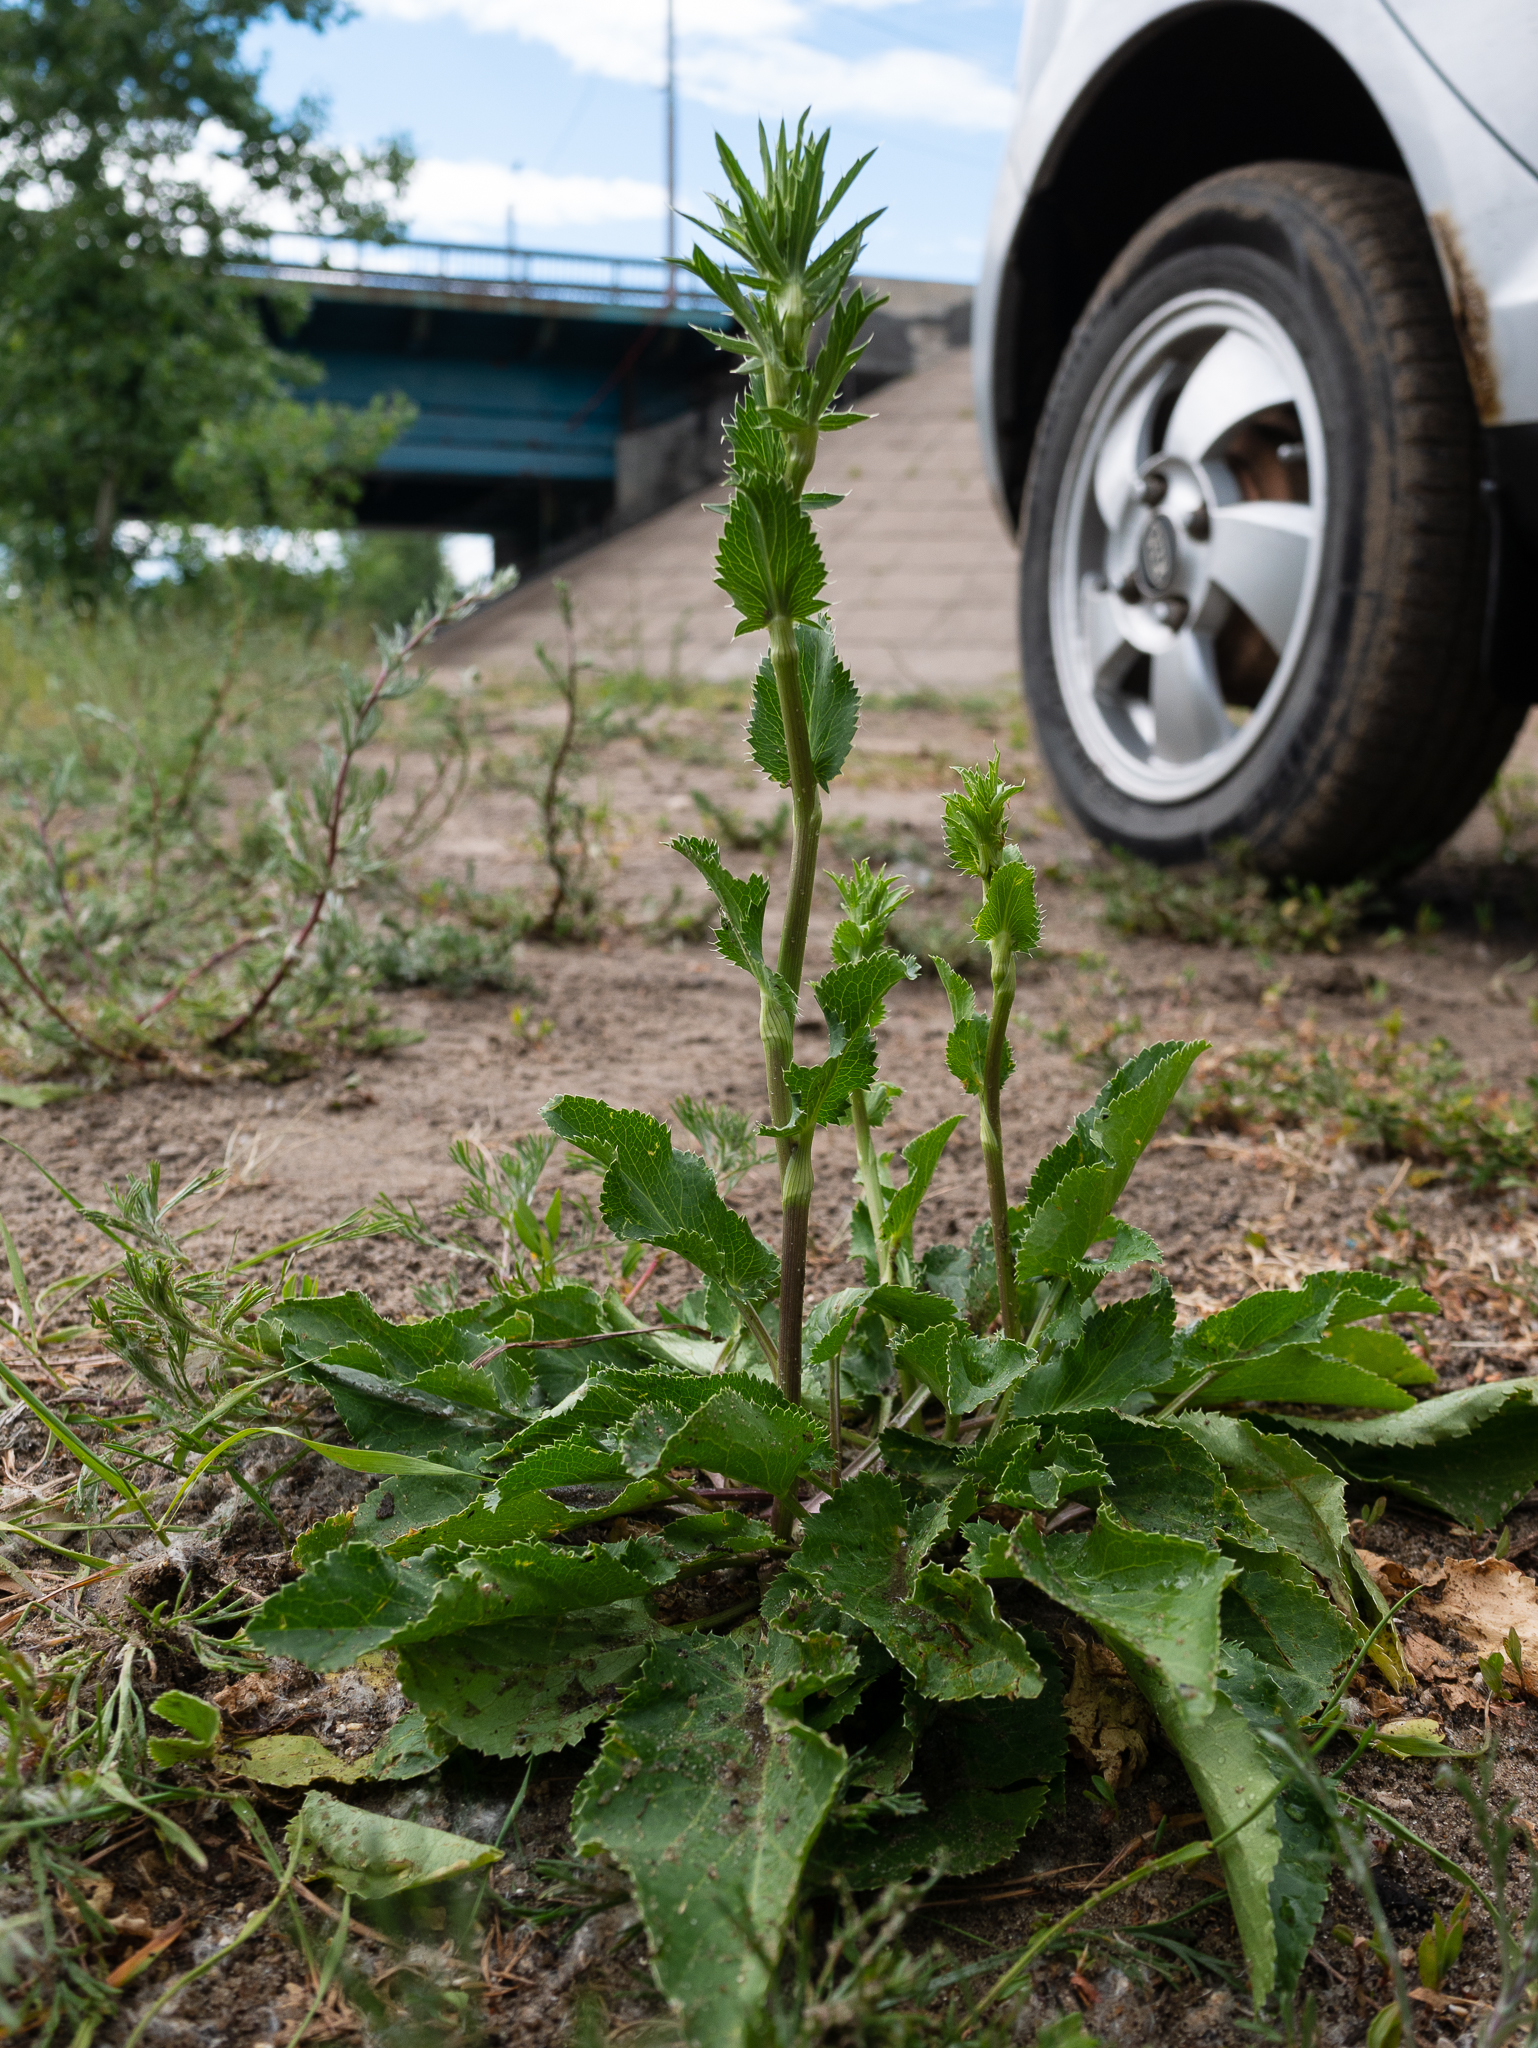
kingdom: Plantae
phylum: Tracheophyta
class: Magnoliopsida
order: Apiales
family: Apiaceae
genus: Eryngium
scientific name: Eryngium planum
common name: Blue eryngo
